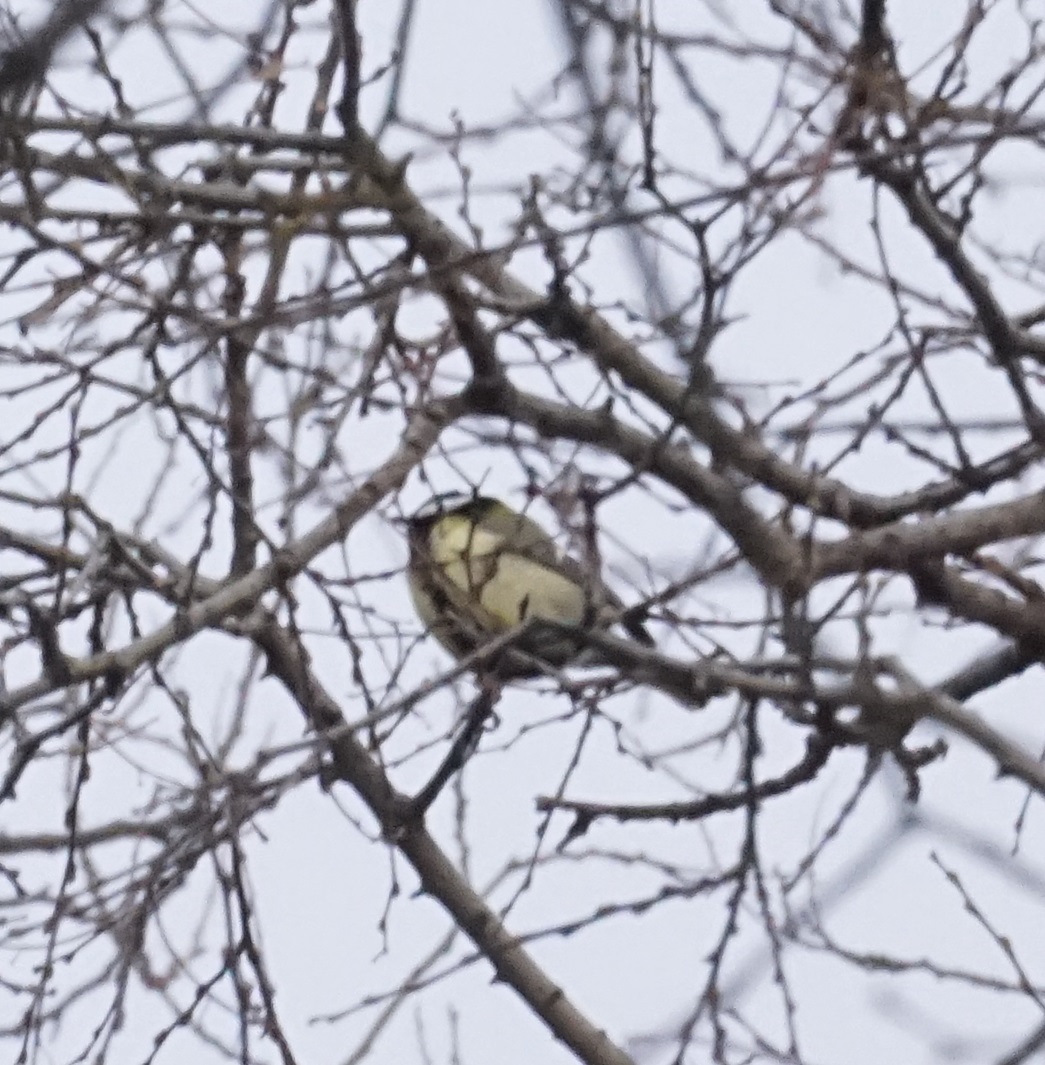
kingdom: Animalia
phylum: Chordata
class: Aves
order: Passeriformes
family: Paridae
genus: Parus
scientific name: Parus major
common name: Great tit
